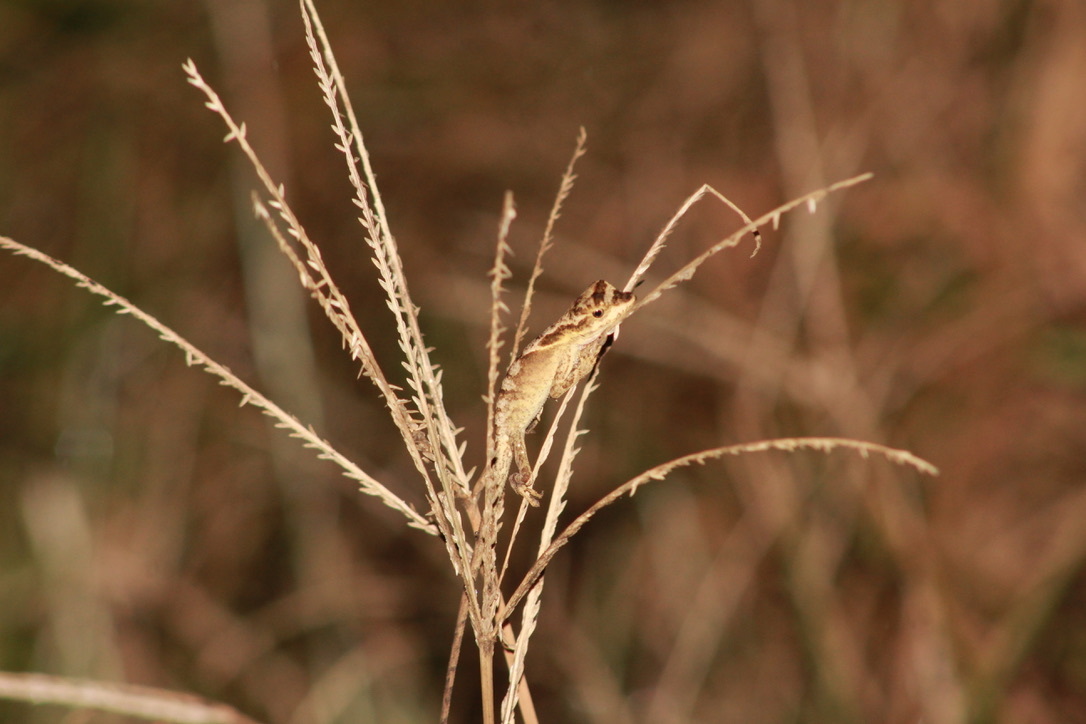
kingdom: Animalia
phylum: Chordata
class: Squamata
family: Dactyloidae
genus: Anolis
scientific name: Anolis planiceps
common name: Goldenscale anole
